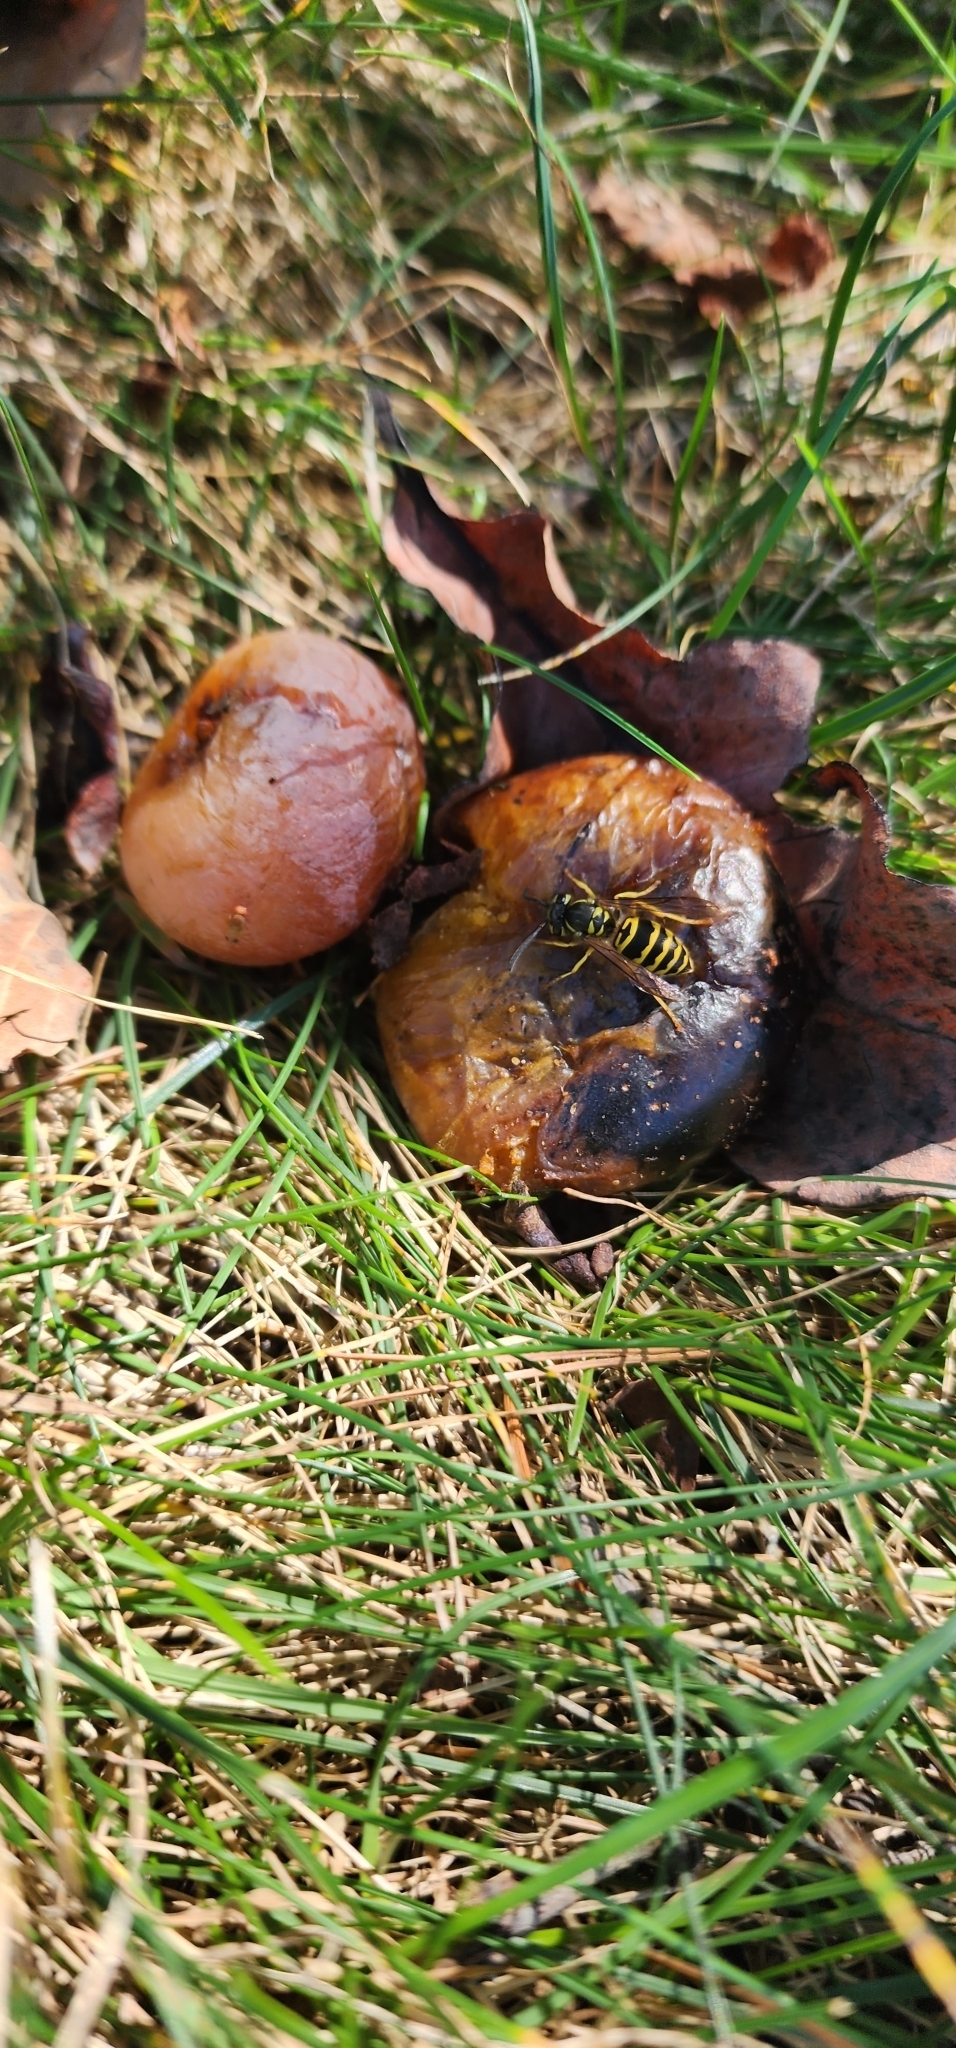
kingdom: Animalia
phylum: Arthropoda
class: Insecta
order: Hymenoptera
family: Vespidae
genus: Vespula
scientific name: Vespula maculifrons
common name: Eastern yellowjacket
